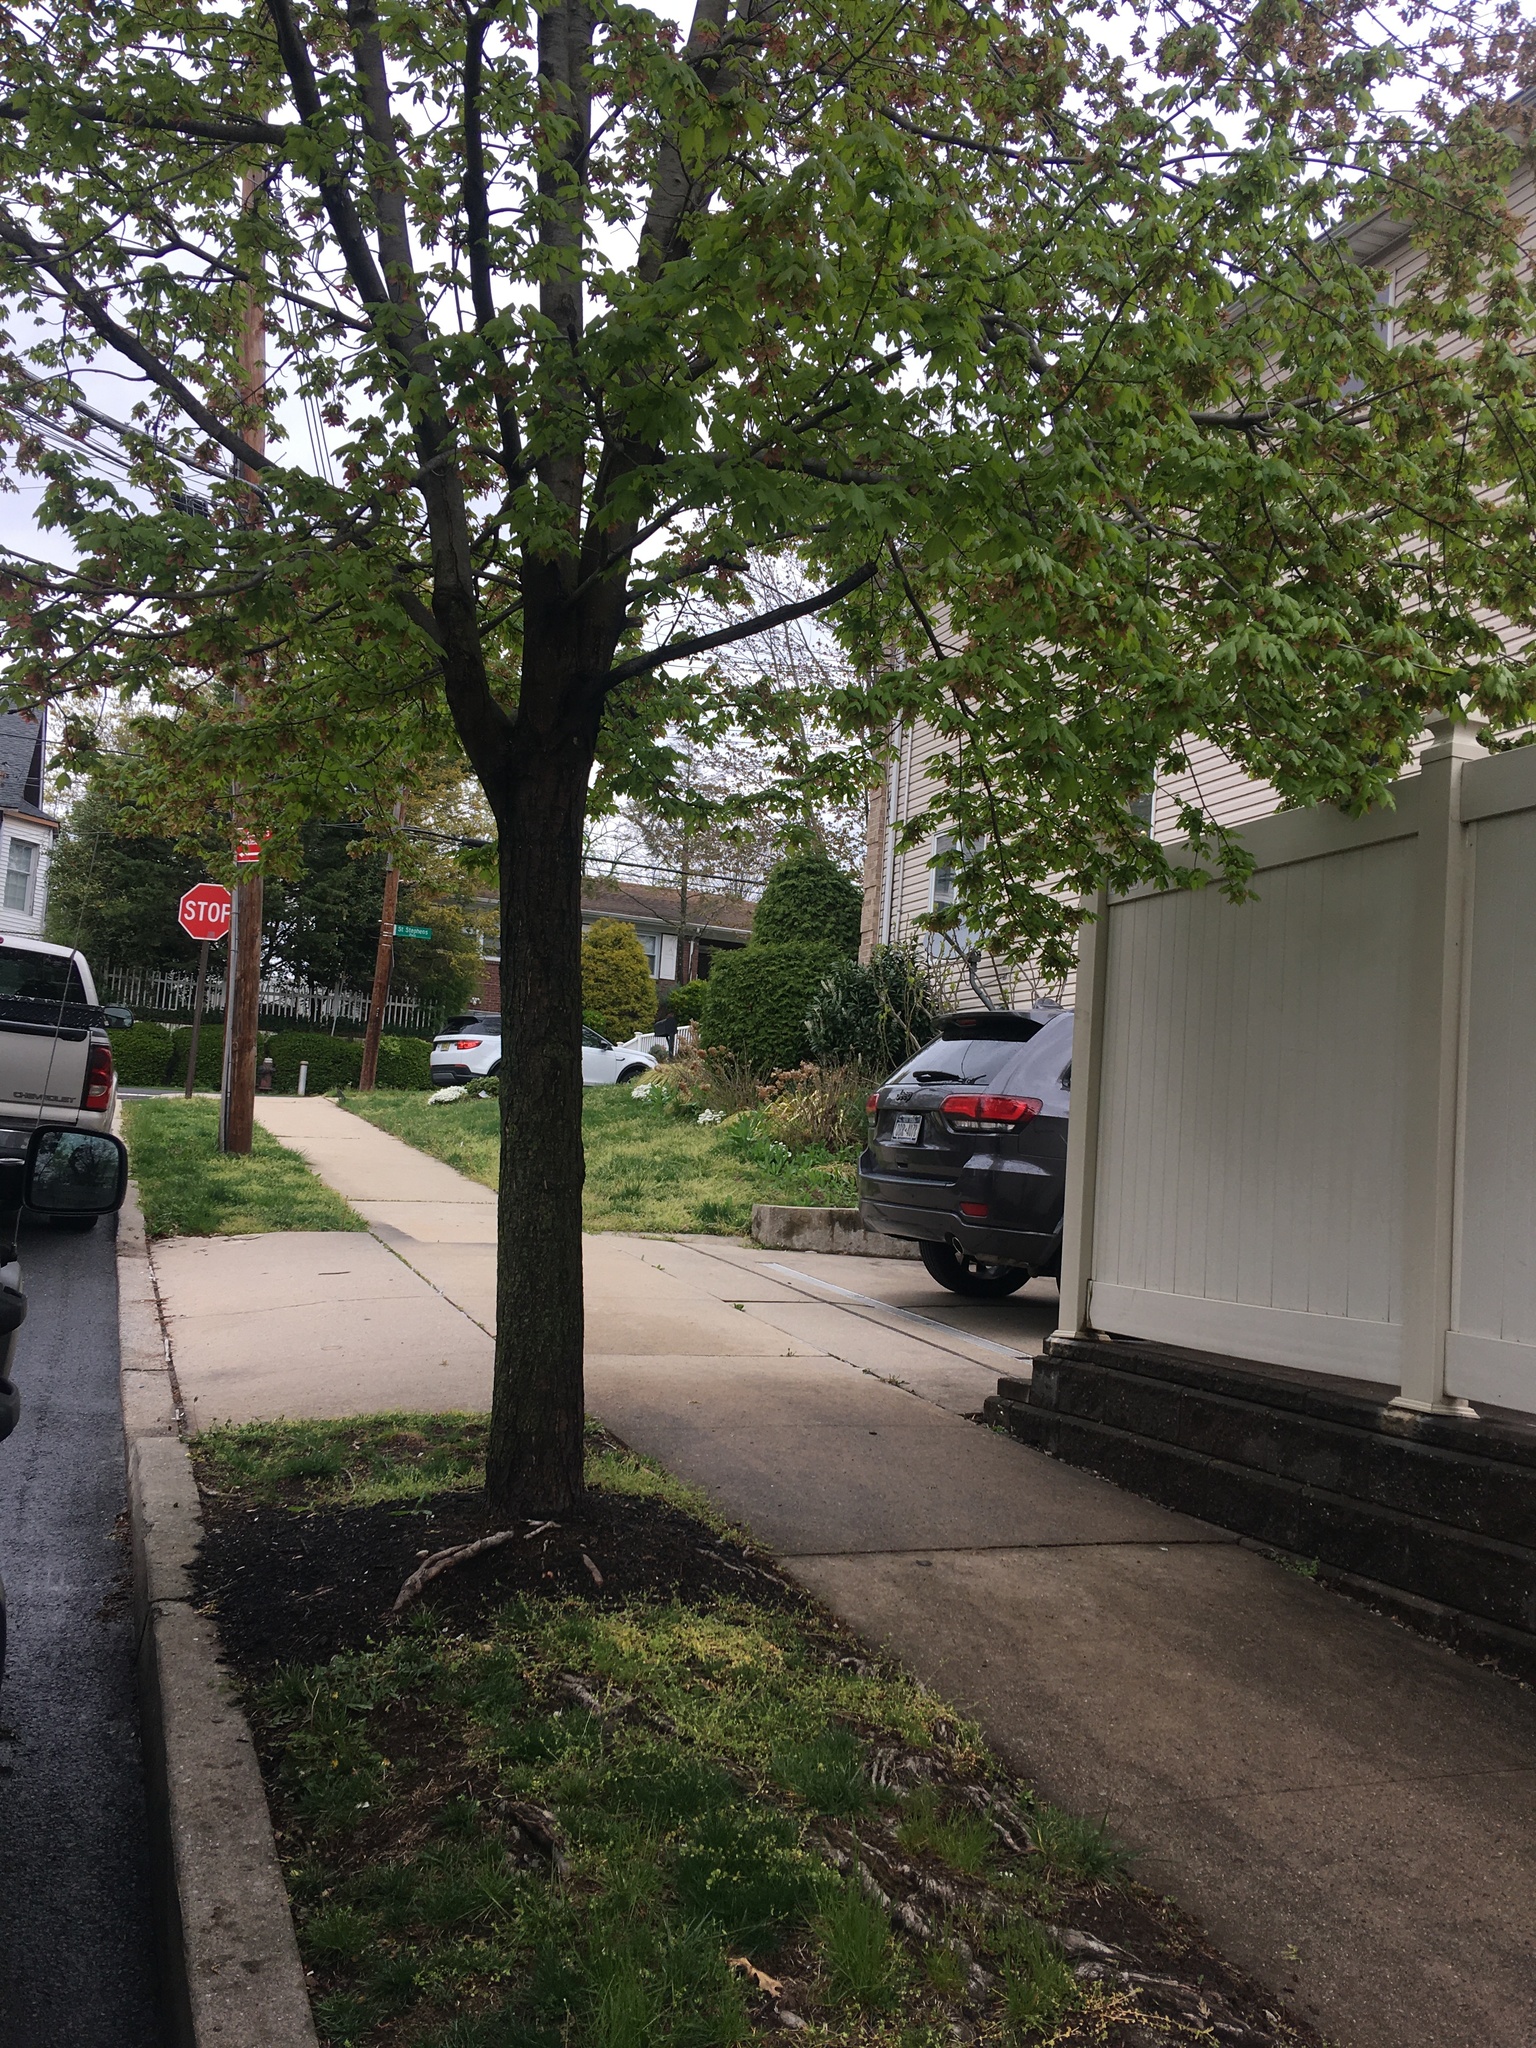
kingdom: Plantae
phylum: Tracheophyta
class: Magnoliopsida
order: Lamiales
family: Plantaginaceae
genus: Veronica
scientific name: Veronica sublobata
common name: False ivy-leaved speedwell
